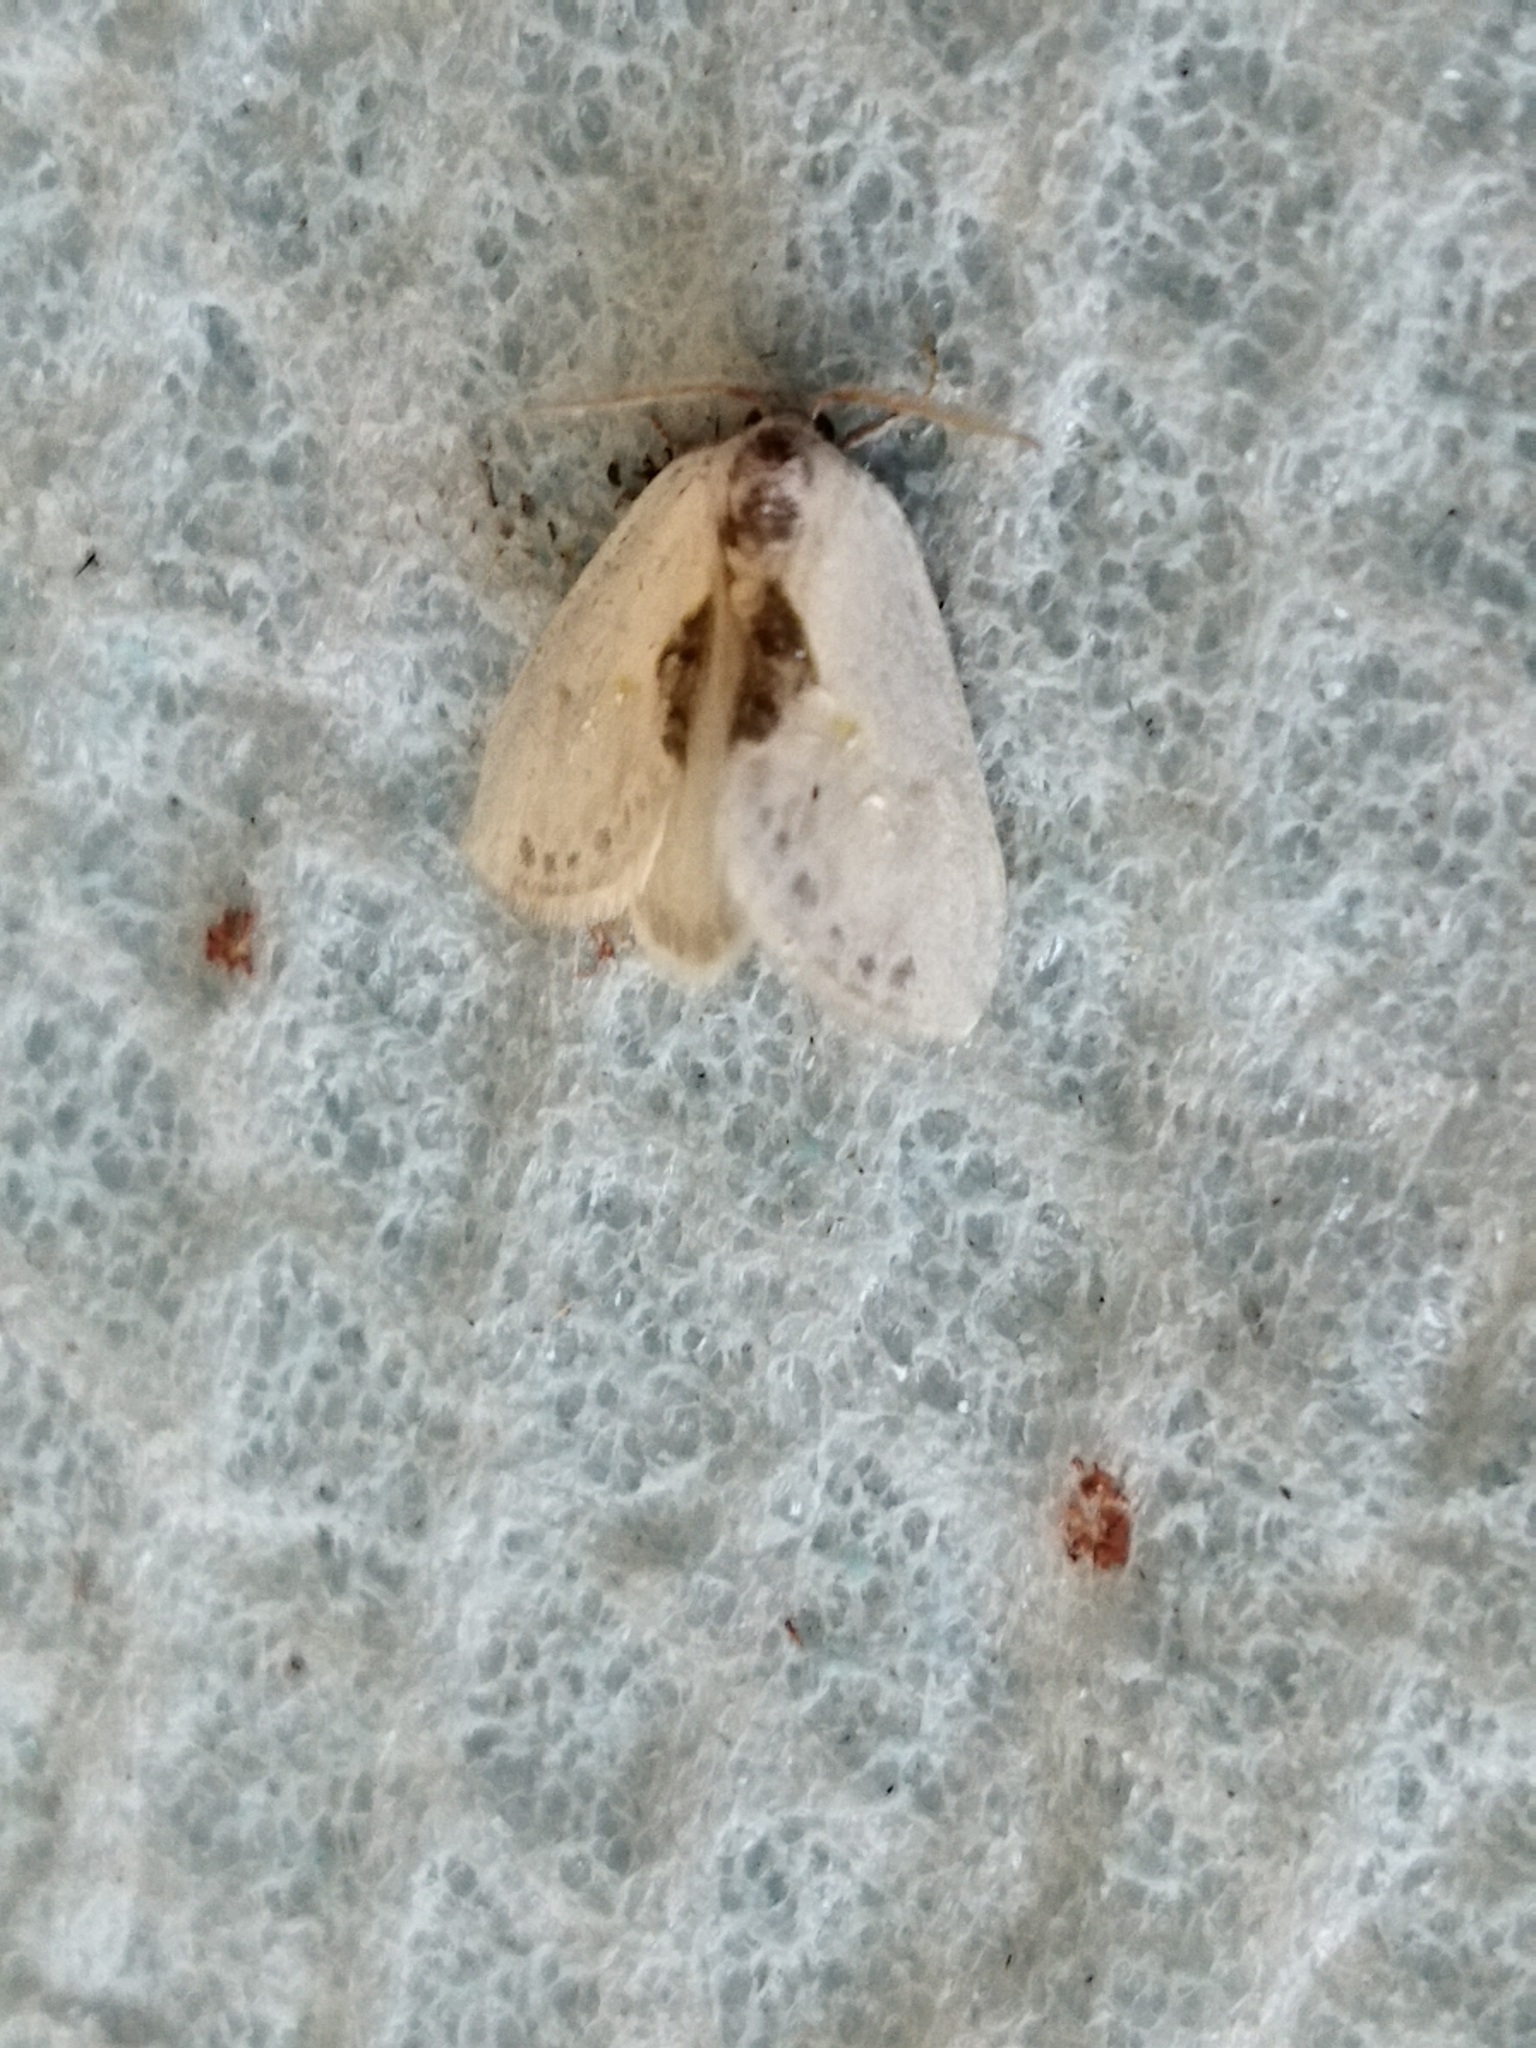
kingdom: Animalia
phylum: Arthropoda
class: Insecta
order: Lepidoptera
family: Drepanidae
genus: Cilix
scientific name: Cilix asiatica
